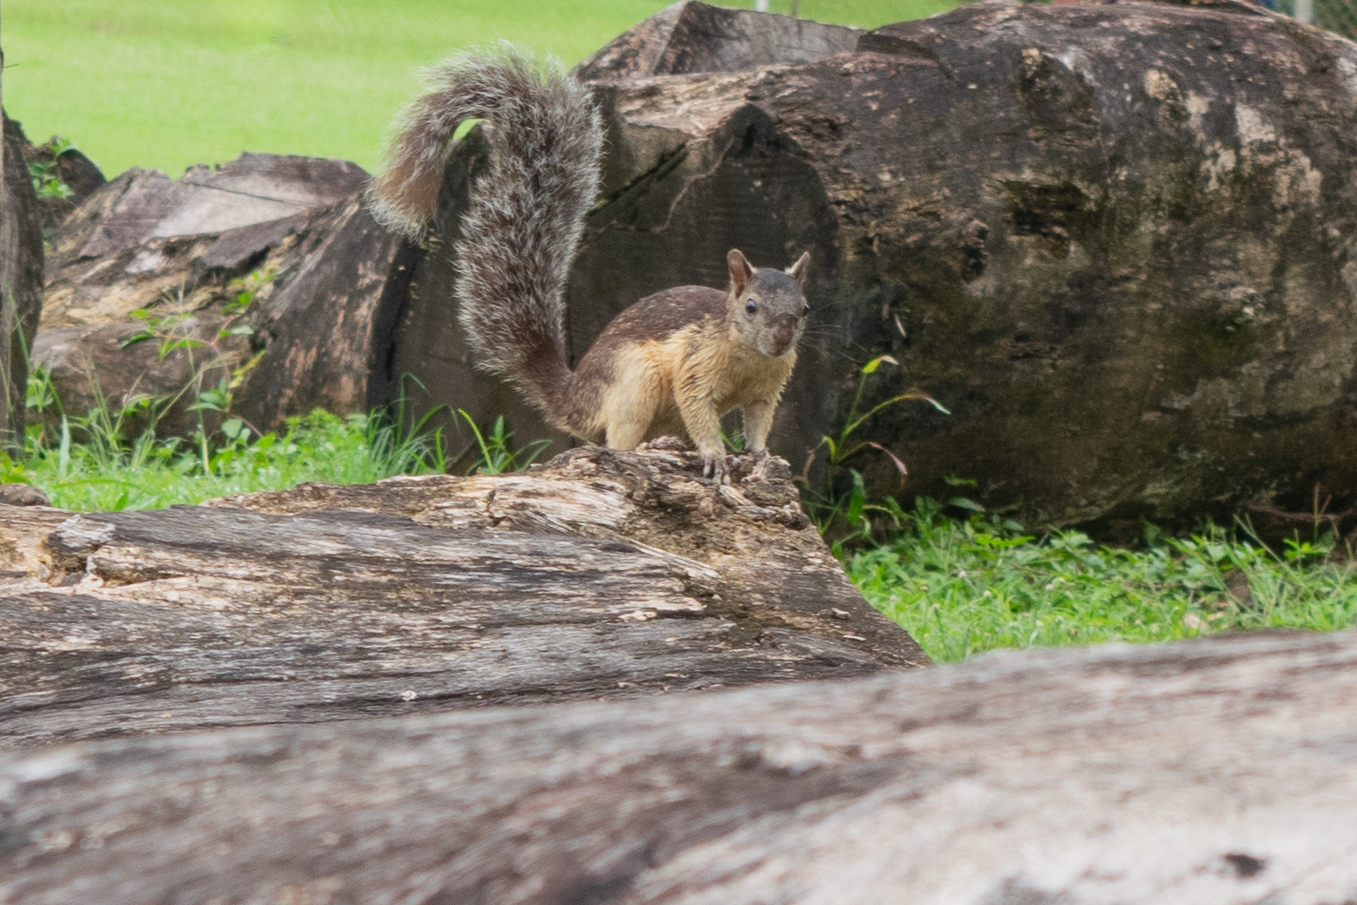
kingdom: Animalia
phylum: Chordata
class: Mammalia
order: Rodentia
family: Sciuridae
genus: Sciurus
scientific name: Sciurus variegatoides
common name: Variegated squirrel
